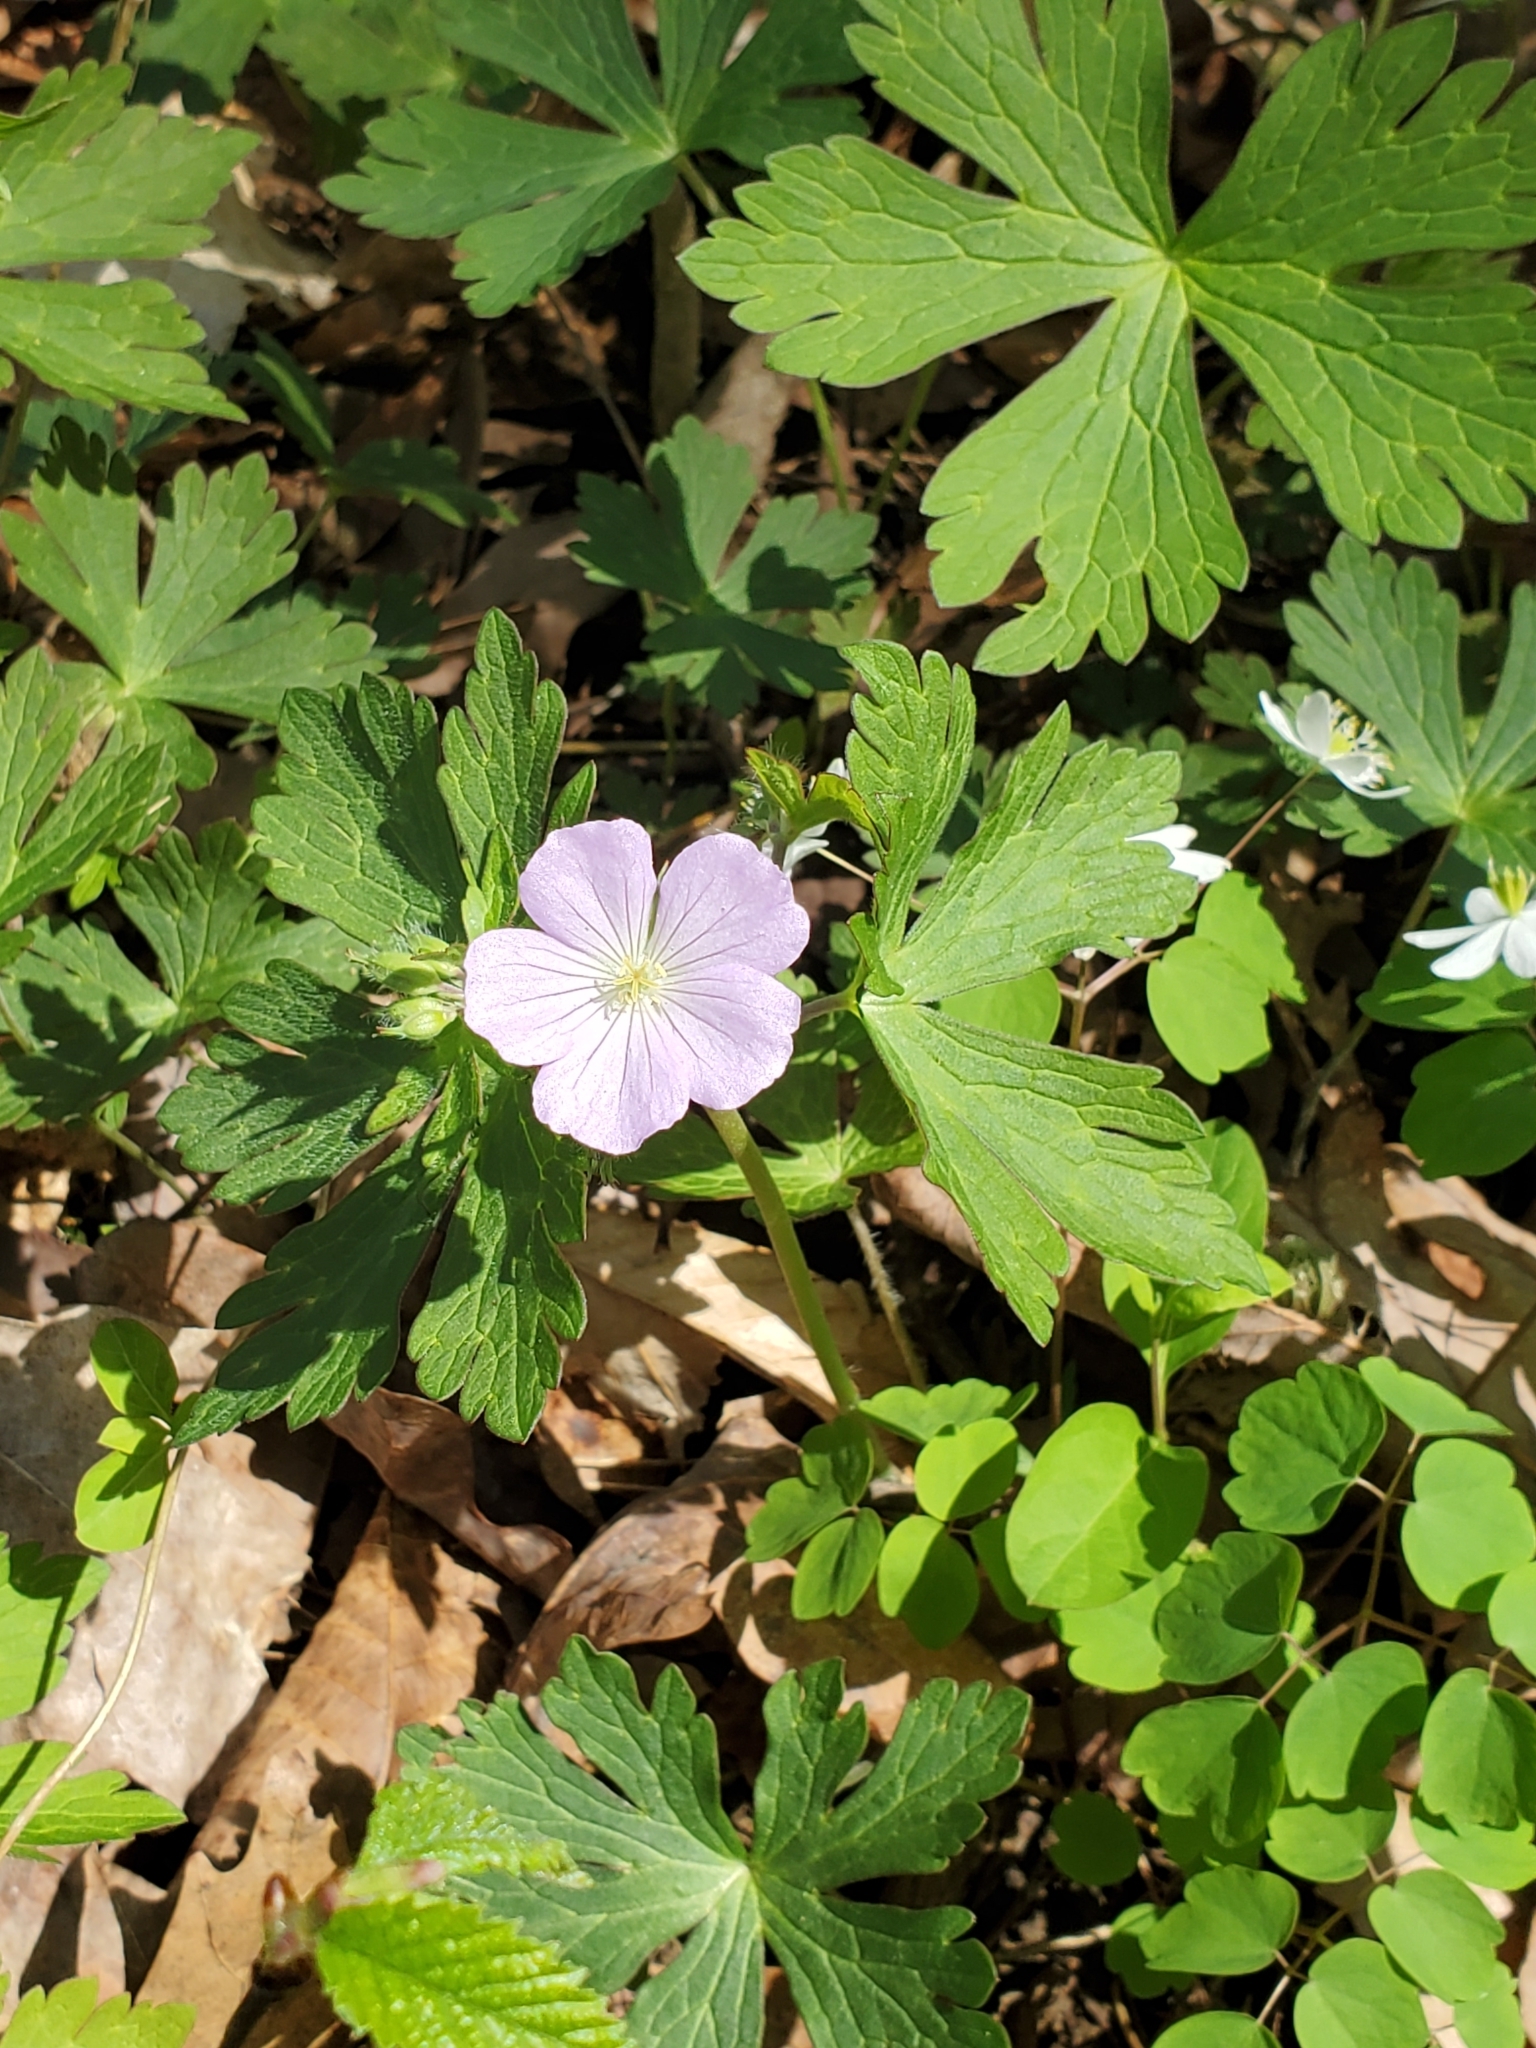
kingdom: Plantae
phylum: Tracheophyta
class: Magnoliopsida
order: Geraniales
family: Geraniaceae
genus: Geranium
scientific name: Geranium maculatum
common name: Spotted geranium
